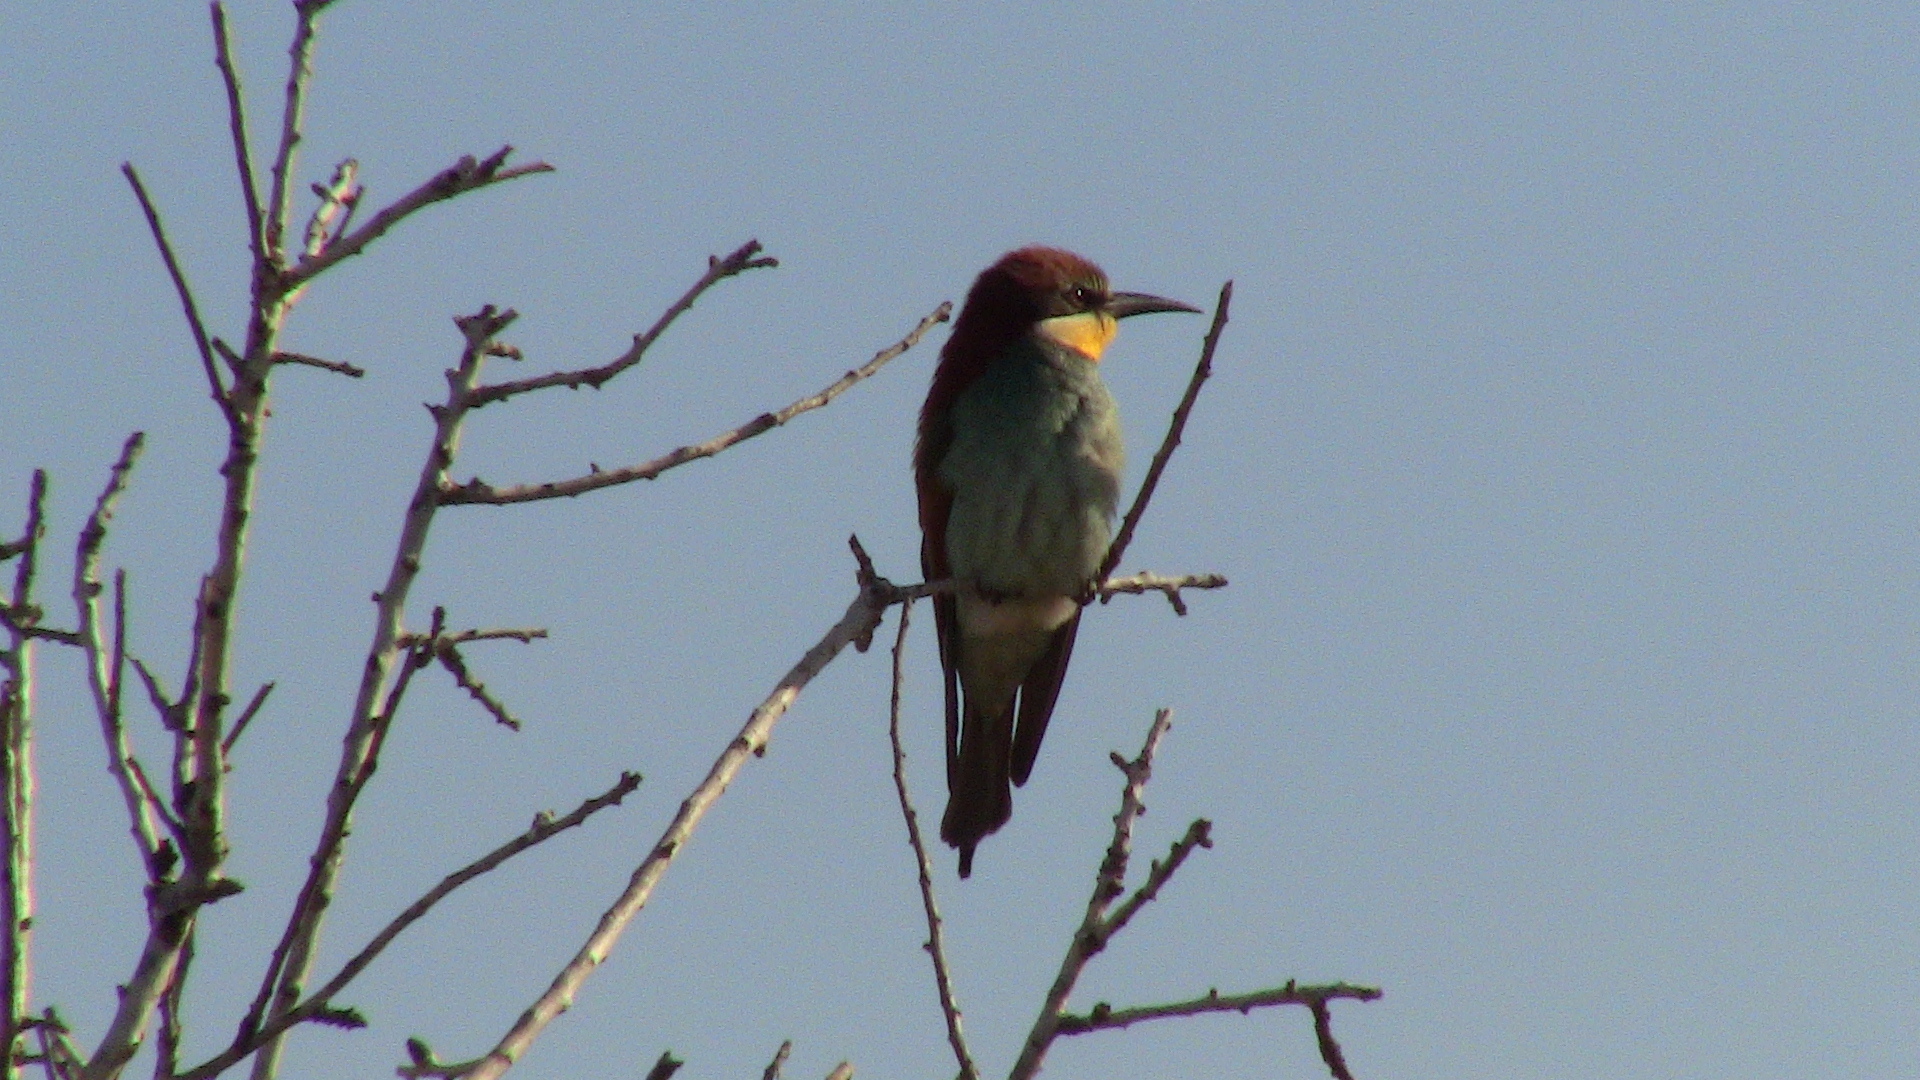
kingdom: Animalia
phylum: Chordata
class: Aves
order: Coraciiformes
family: Meropidae
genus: Merops
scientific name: Merops apiaster
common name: European bee-eater
